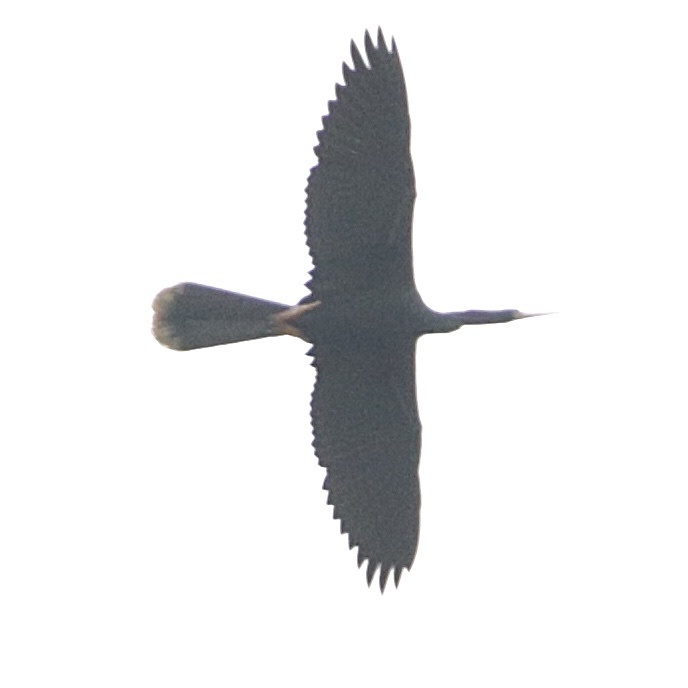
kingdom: Animalia
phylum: Chordata
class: Aves
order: Suliformes
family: Anhingidae
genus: Anhinga
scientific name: Anhinga anhinga
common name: Anhinga
